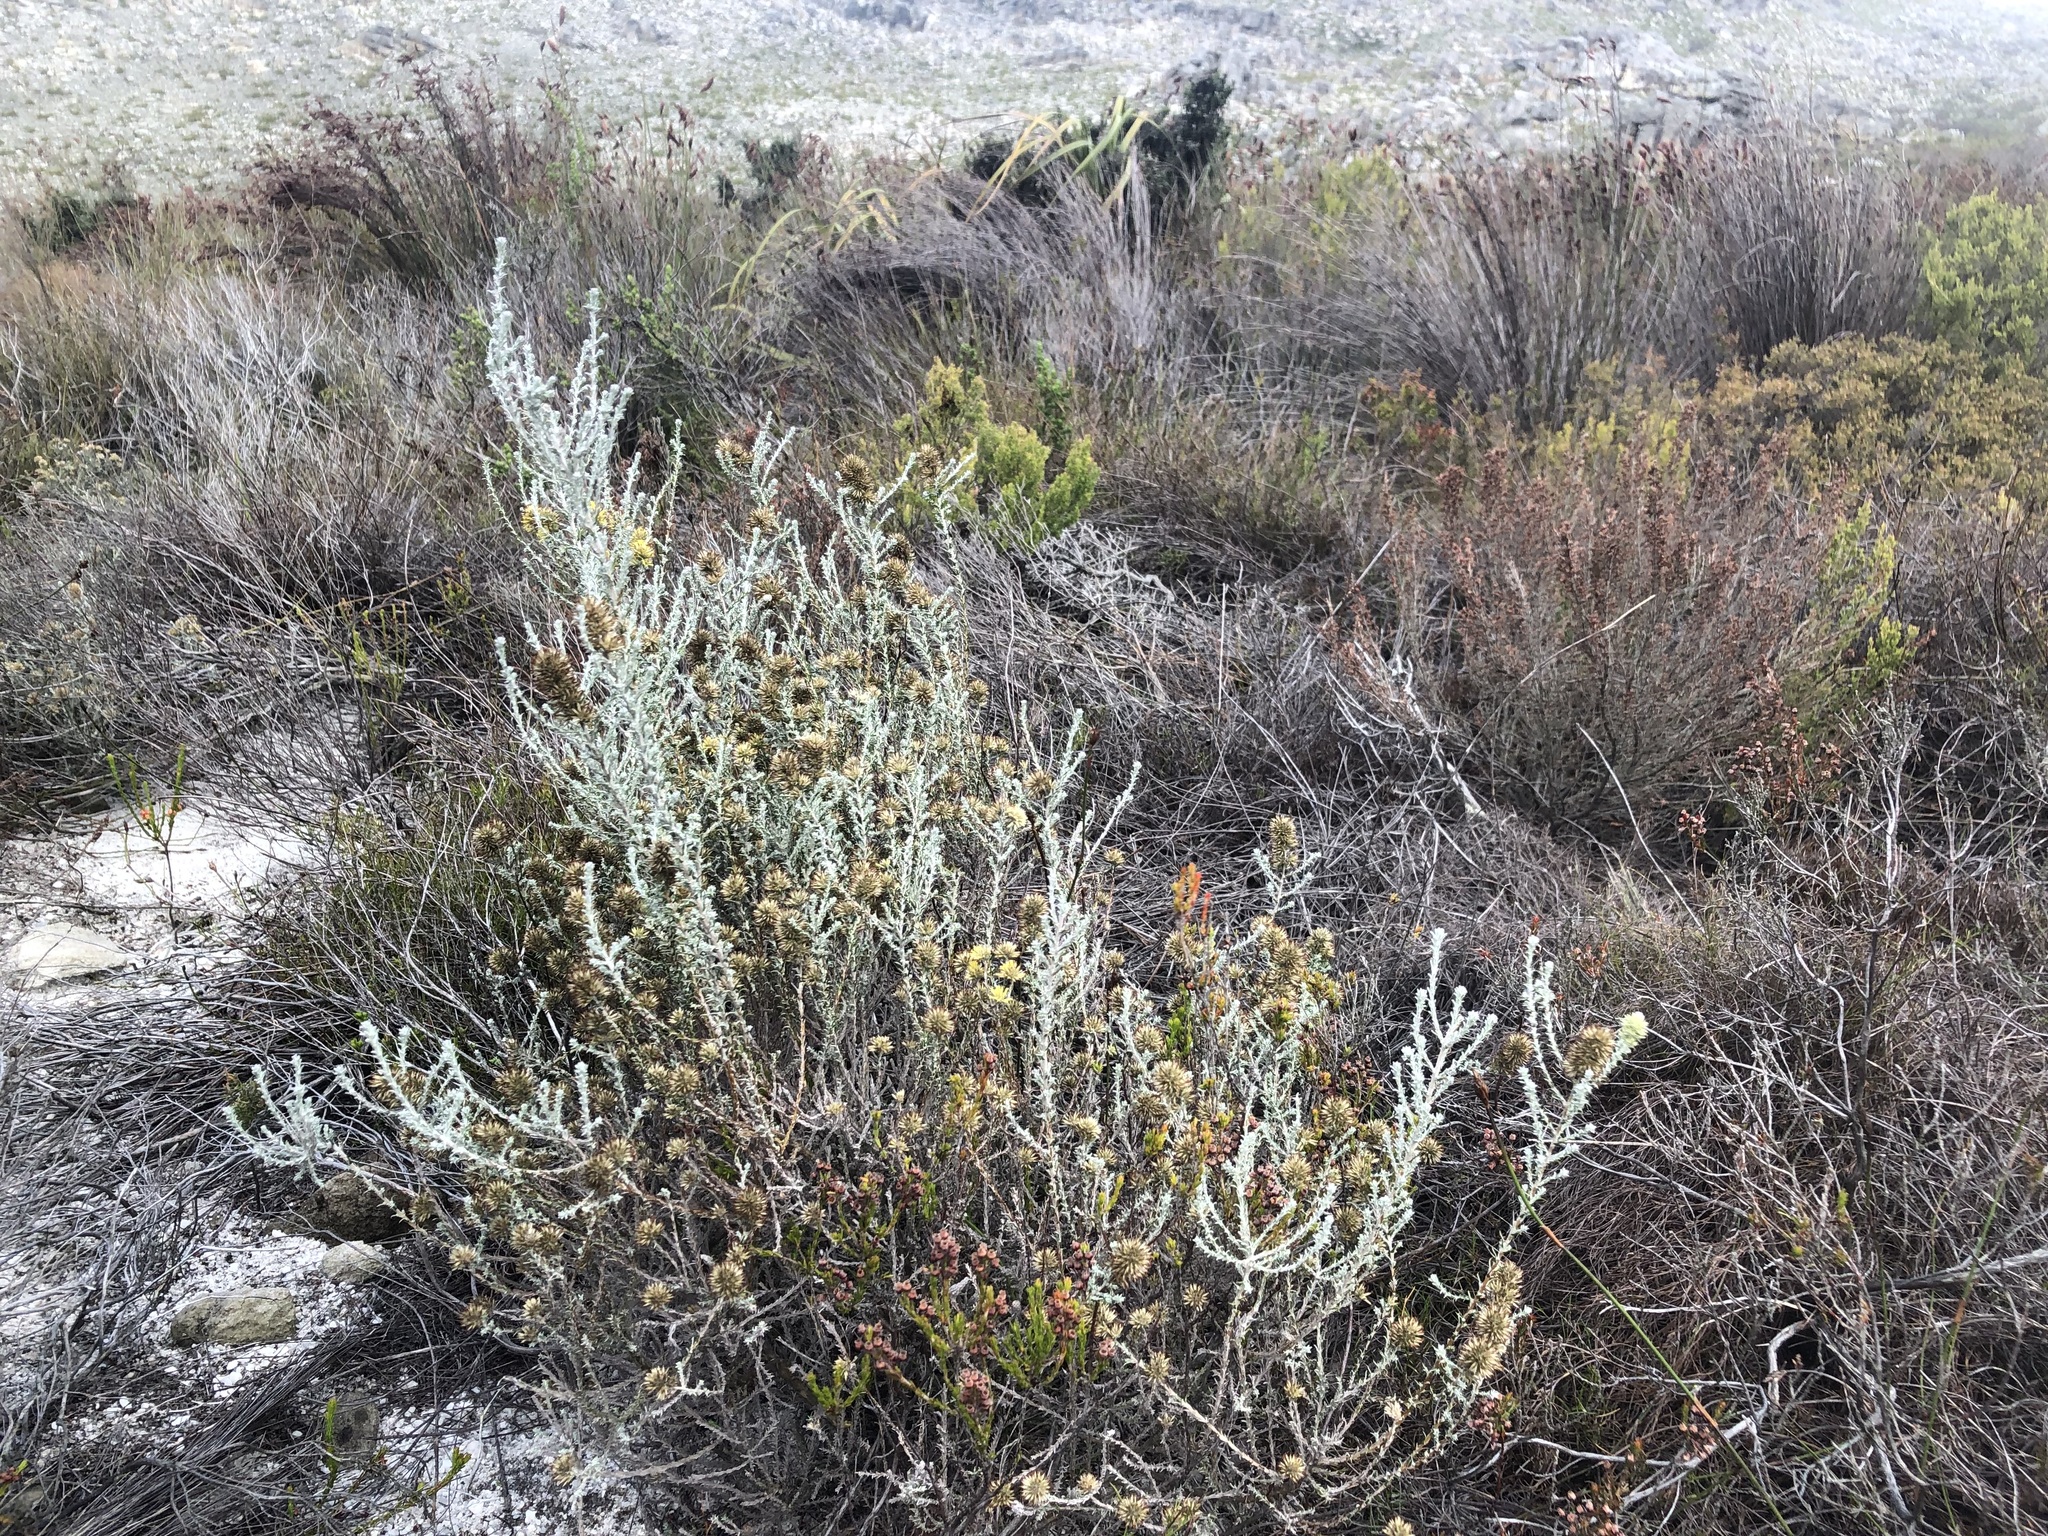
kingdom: Plantae
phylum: Tracheophyta
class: Magnoliopsida
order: Asterales
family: Asteraceae
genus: Seriphium
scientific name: Seriphium spirale
